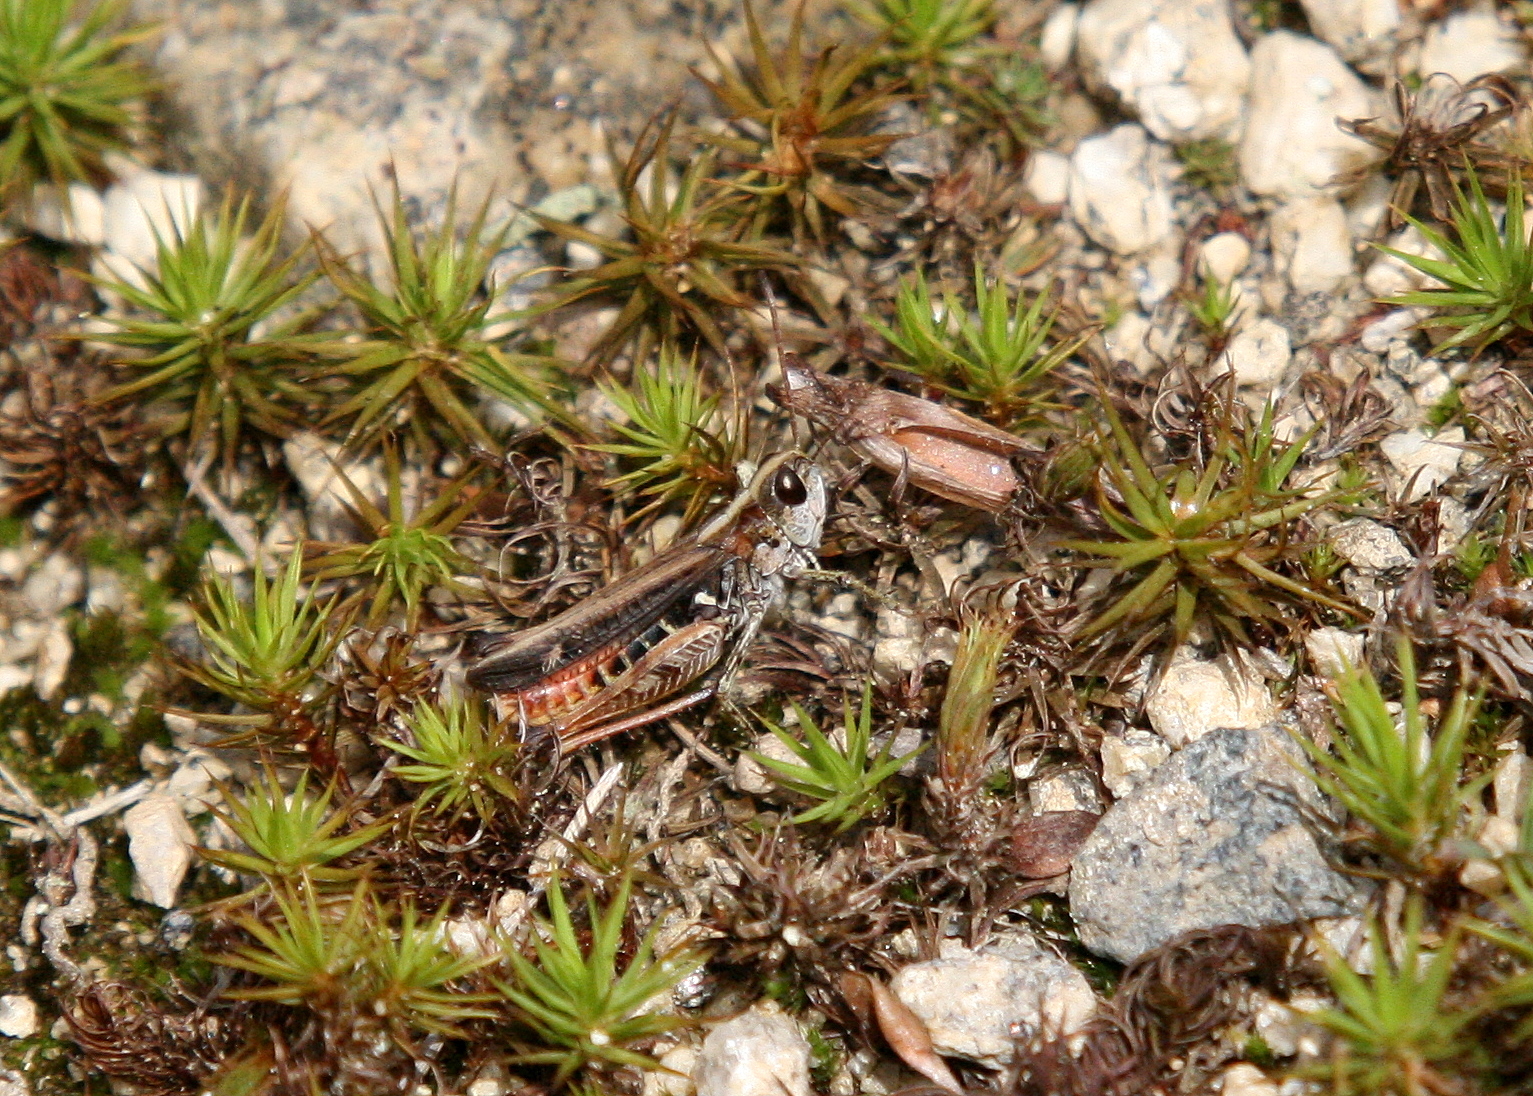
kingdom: Animalia
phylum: Arthropoda
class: Insecta
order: Orthoptera
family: Acrididae
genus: Myrmeleotettix
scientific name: Myrmeleotettix maculatus
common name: Mottled grasshopper
